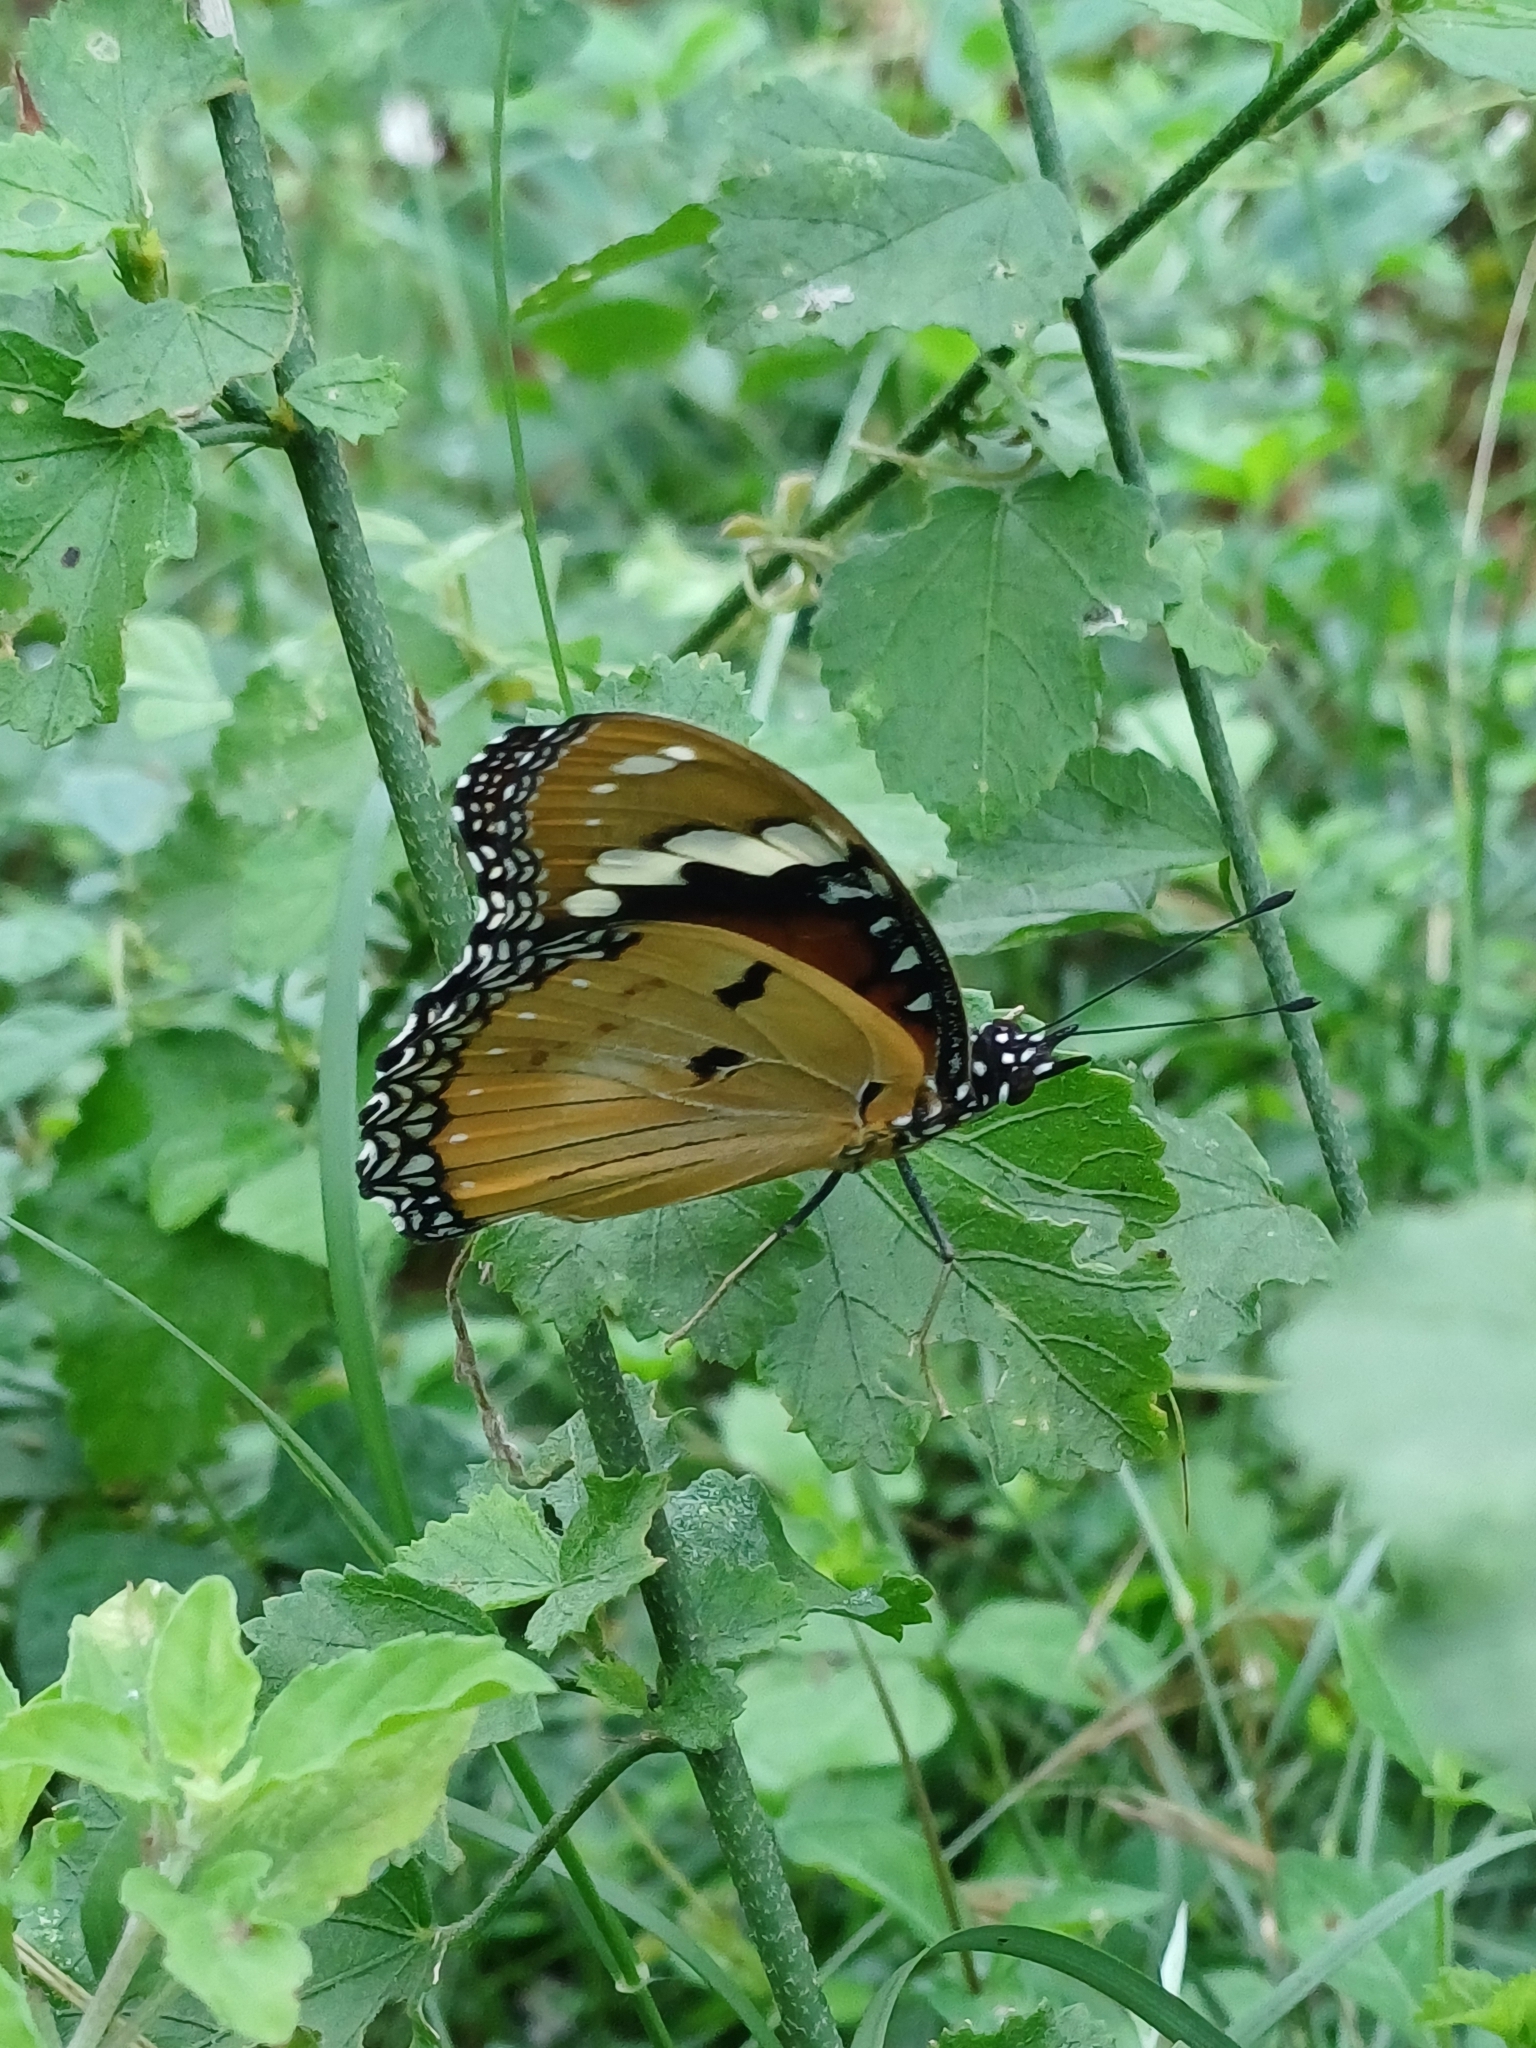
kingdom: Animalia
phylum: Arthropoda
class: Insecta
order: Lepidoptera
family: Nymphalidae
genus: Hypolimnas
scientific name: Hypolimnas misippus
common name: False plain tiger
